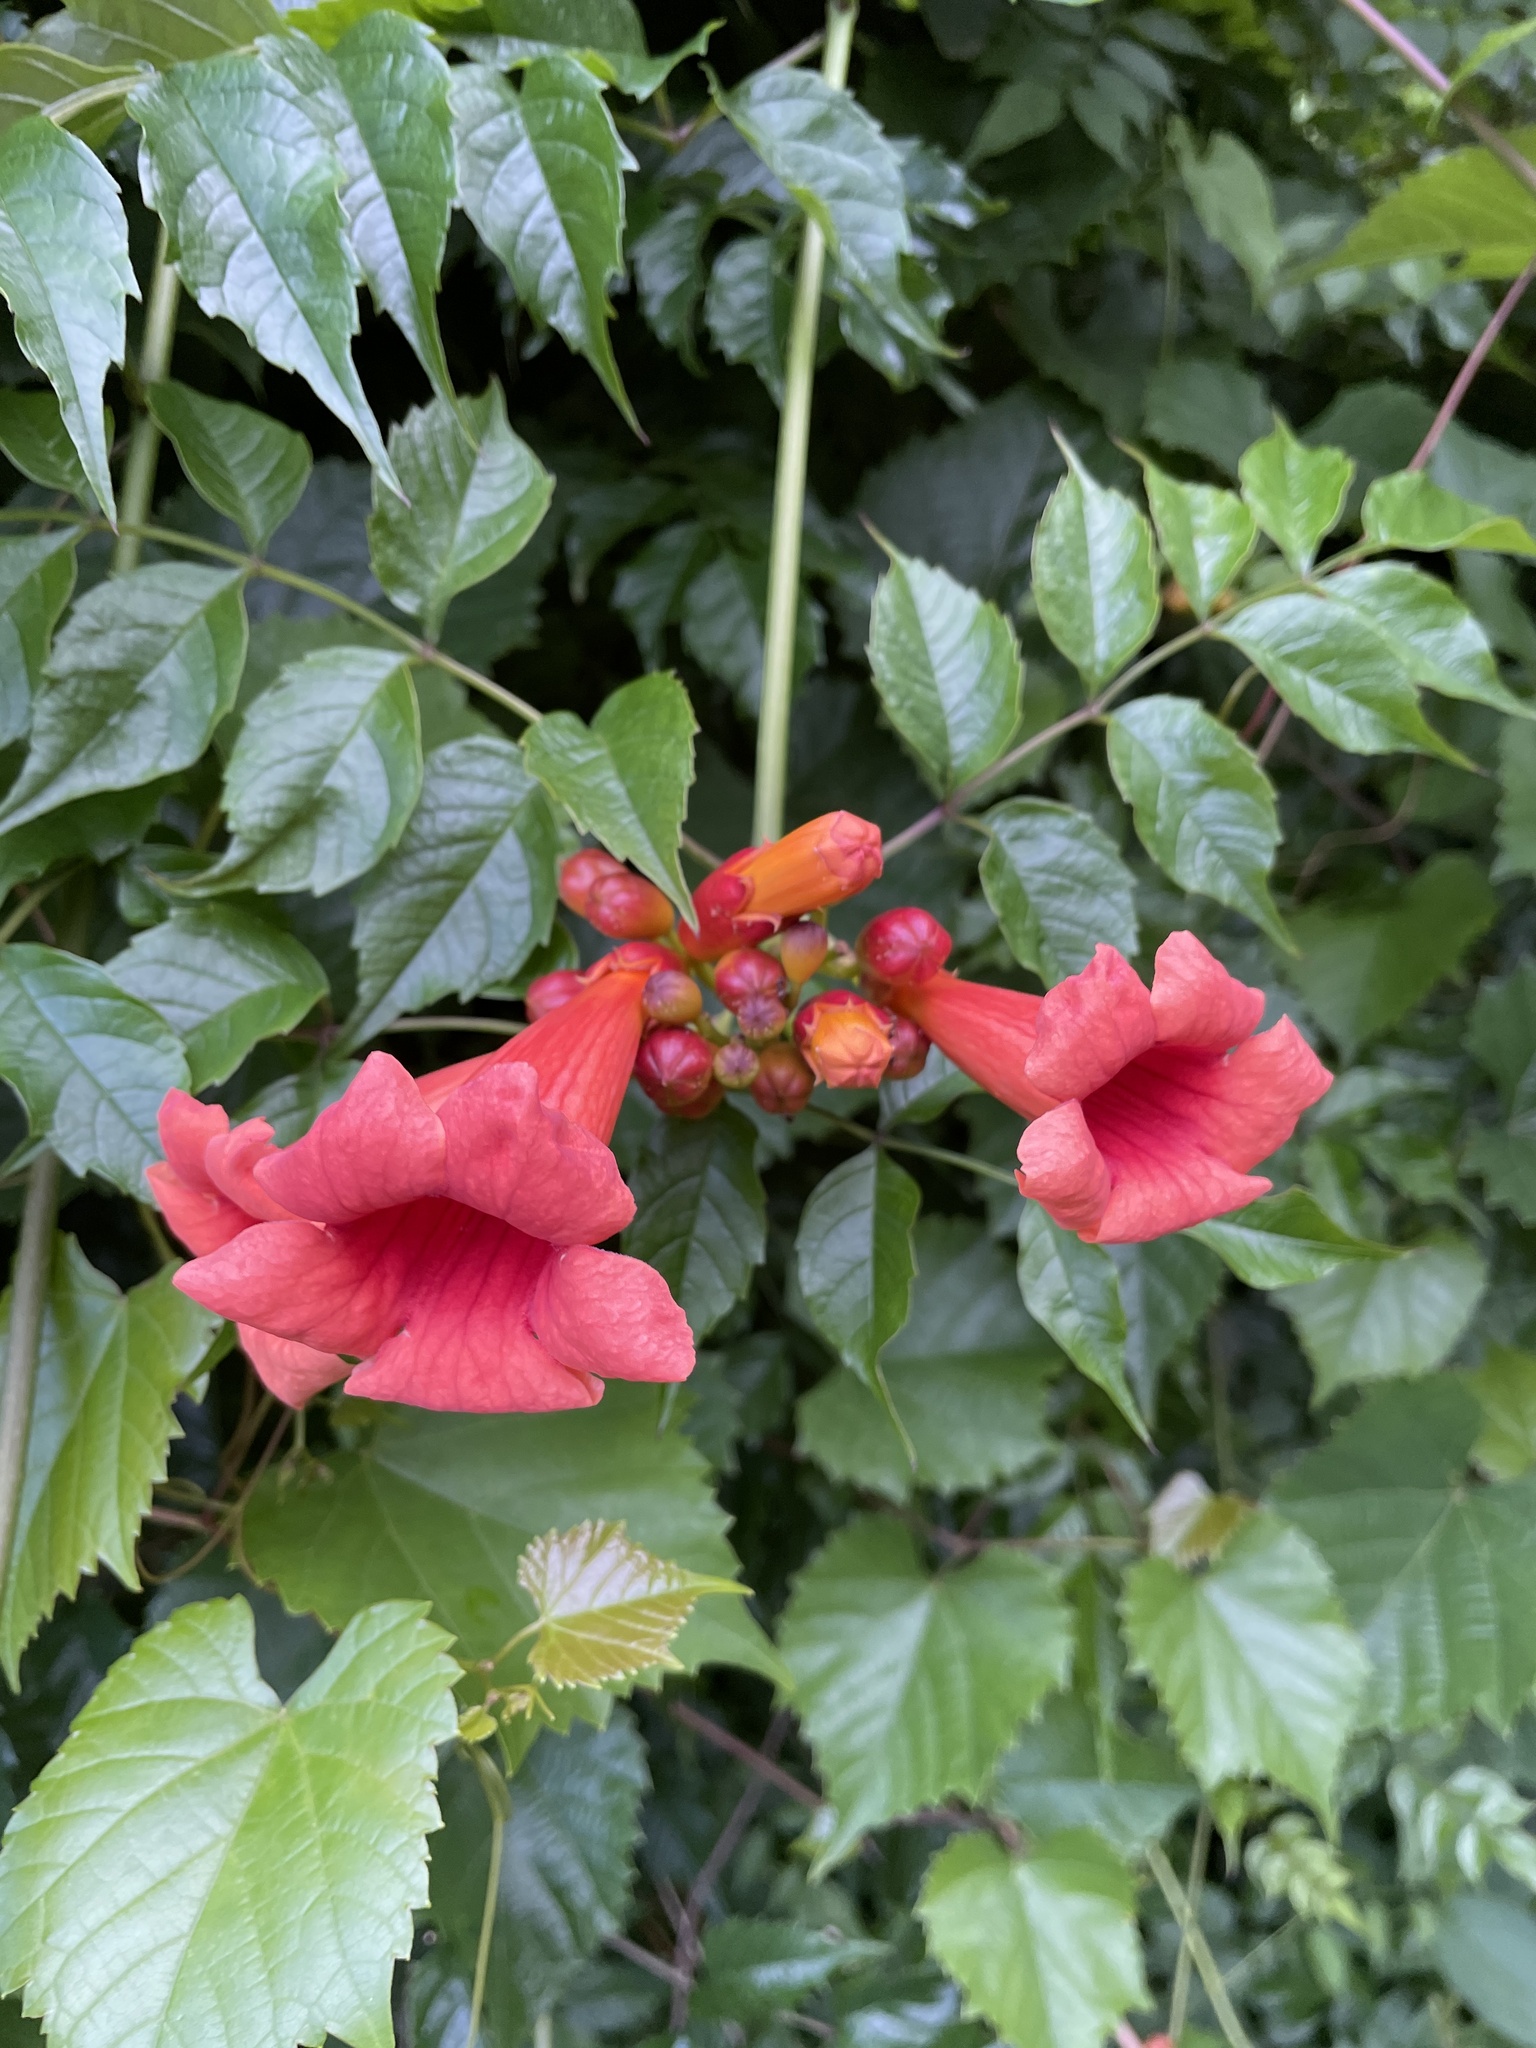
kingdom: Plantae
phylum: Tracheophyta
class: Magnoliopsida
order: Lamiales
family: Bignoniaceae
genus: Campsis
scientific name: Campsis radicans
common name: Trumpet-creeper
